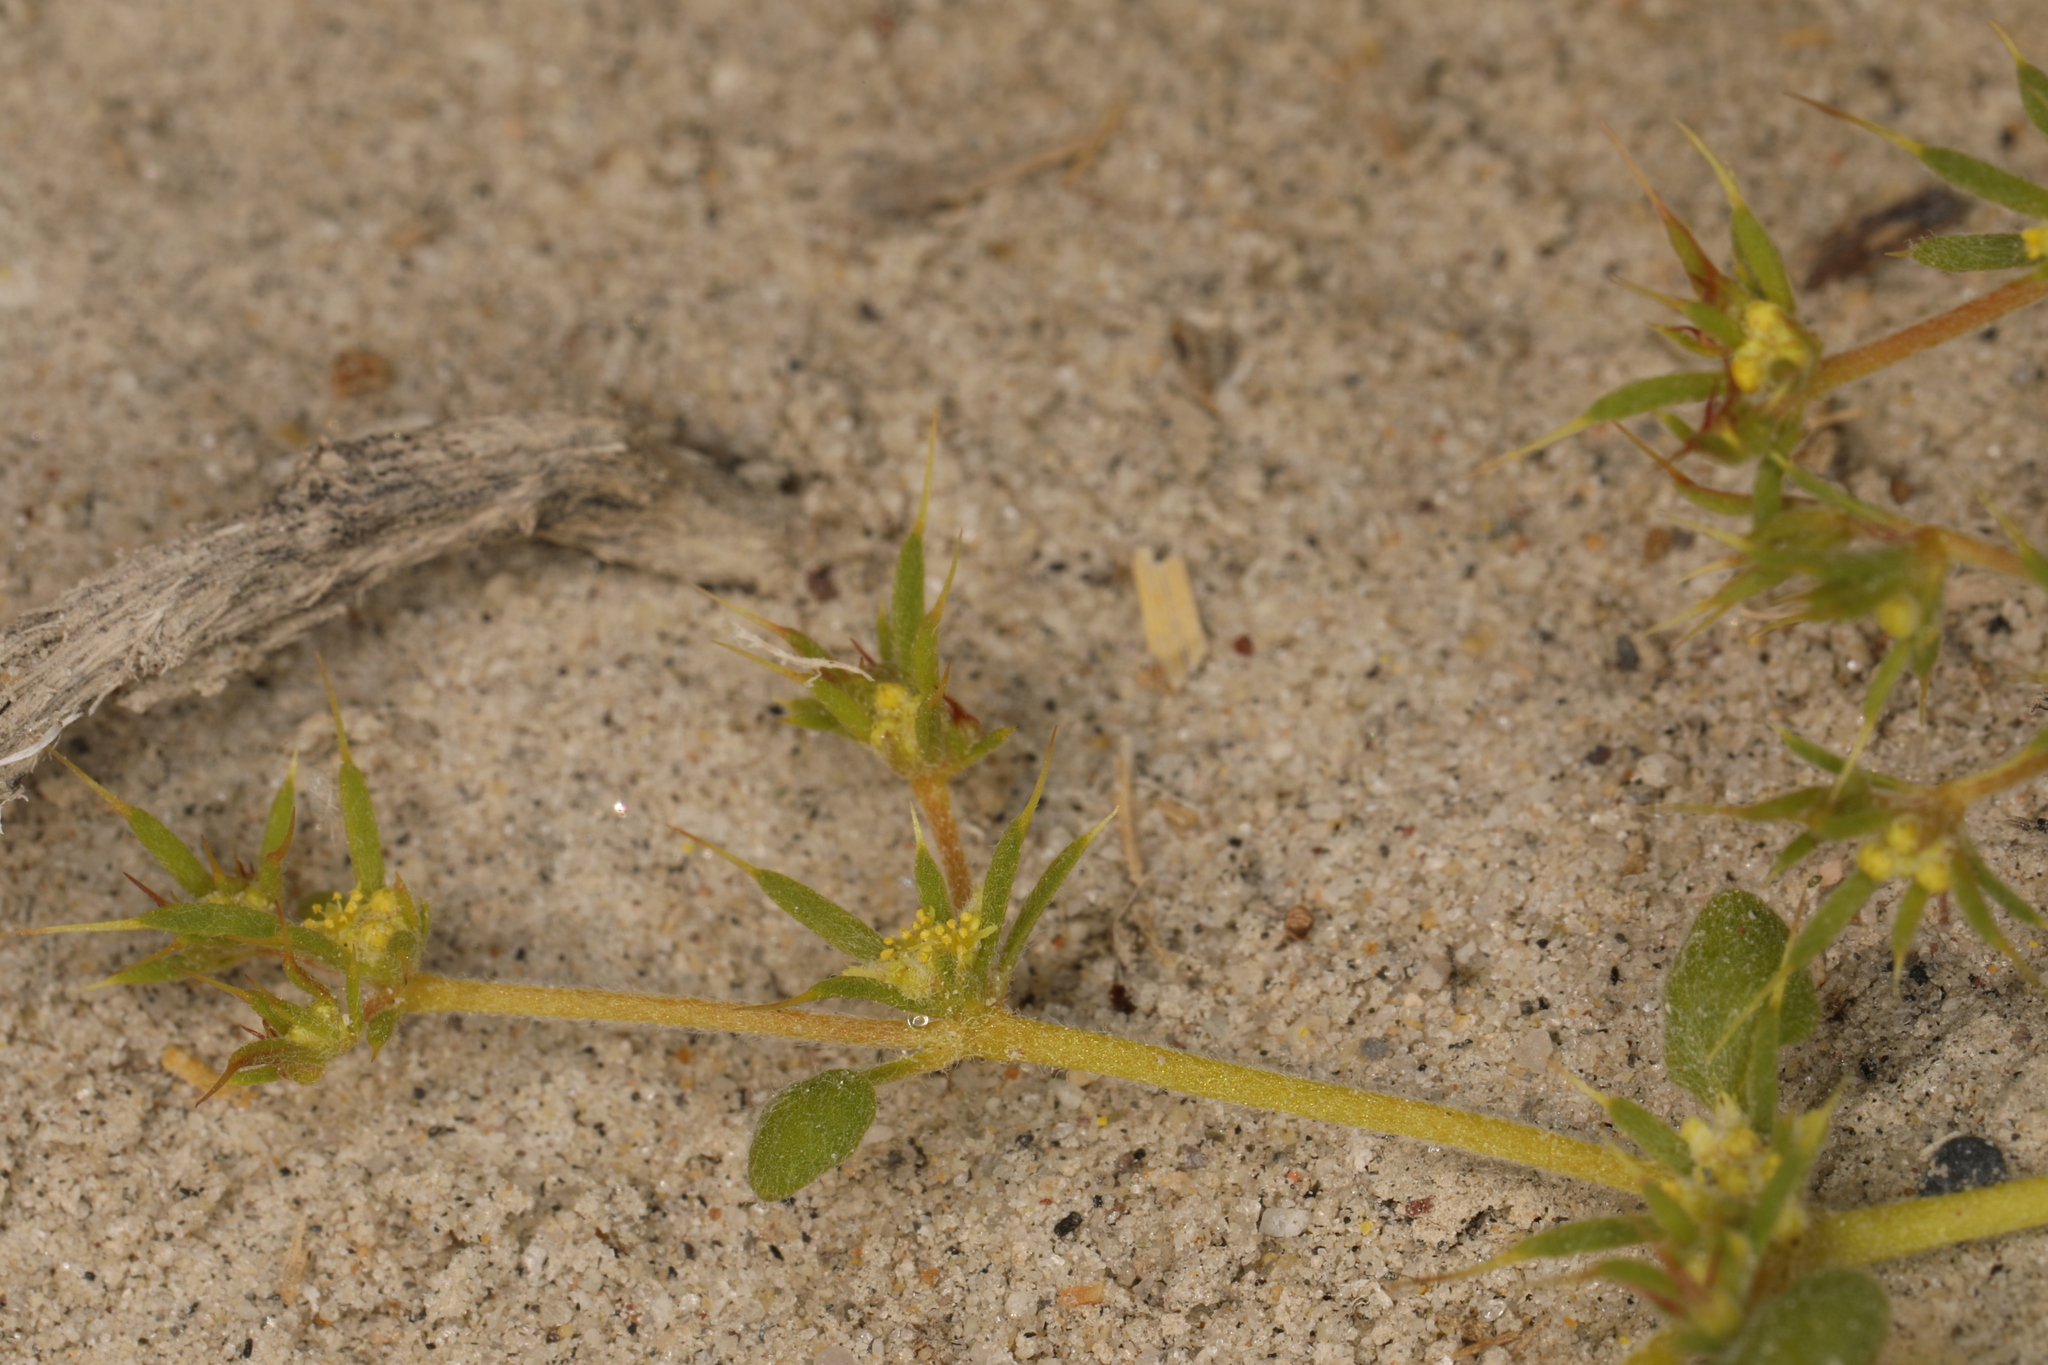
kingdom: Plantae
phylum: Tracheophyta
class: Magnoliopsida
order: Caryophyllales
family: Polygonaceae
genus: Goodmania
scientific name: Goodmania luteola
